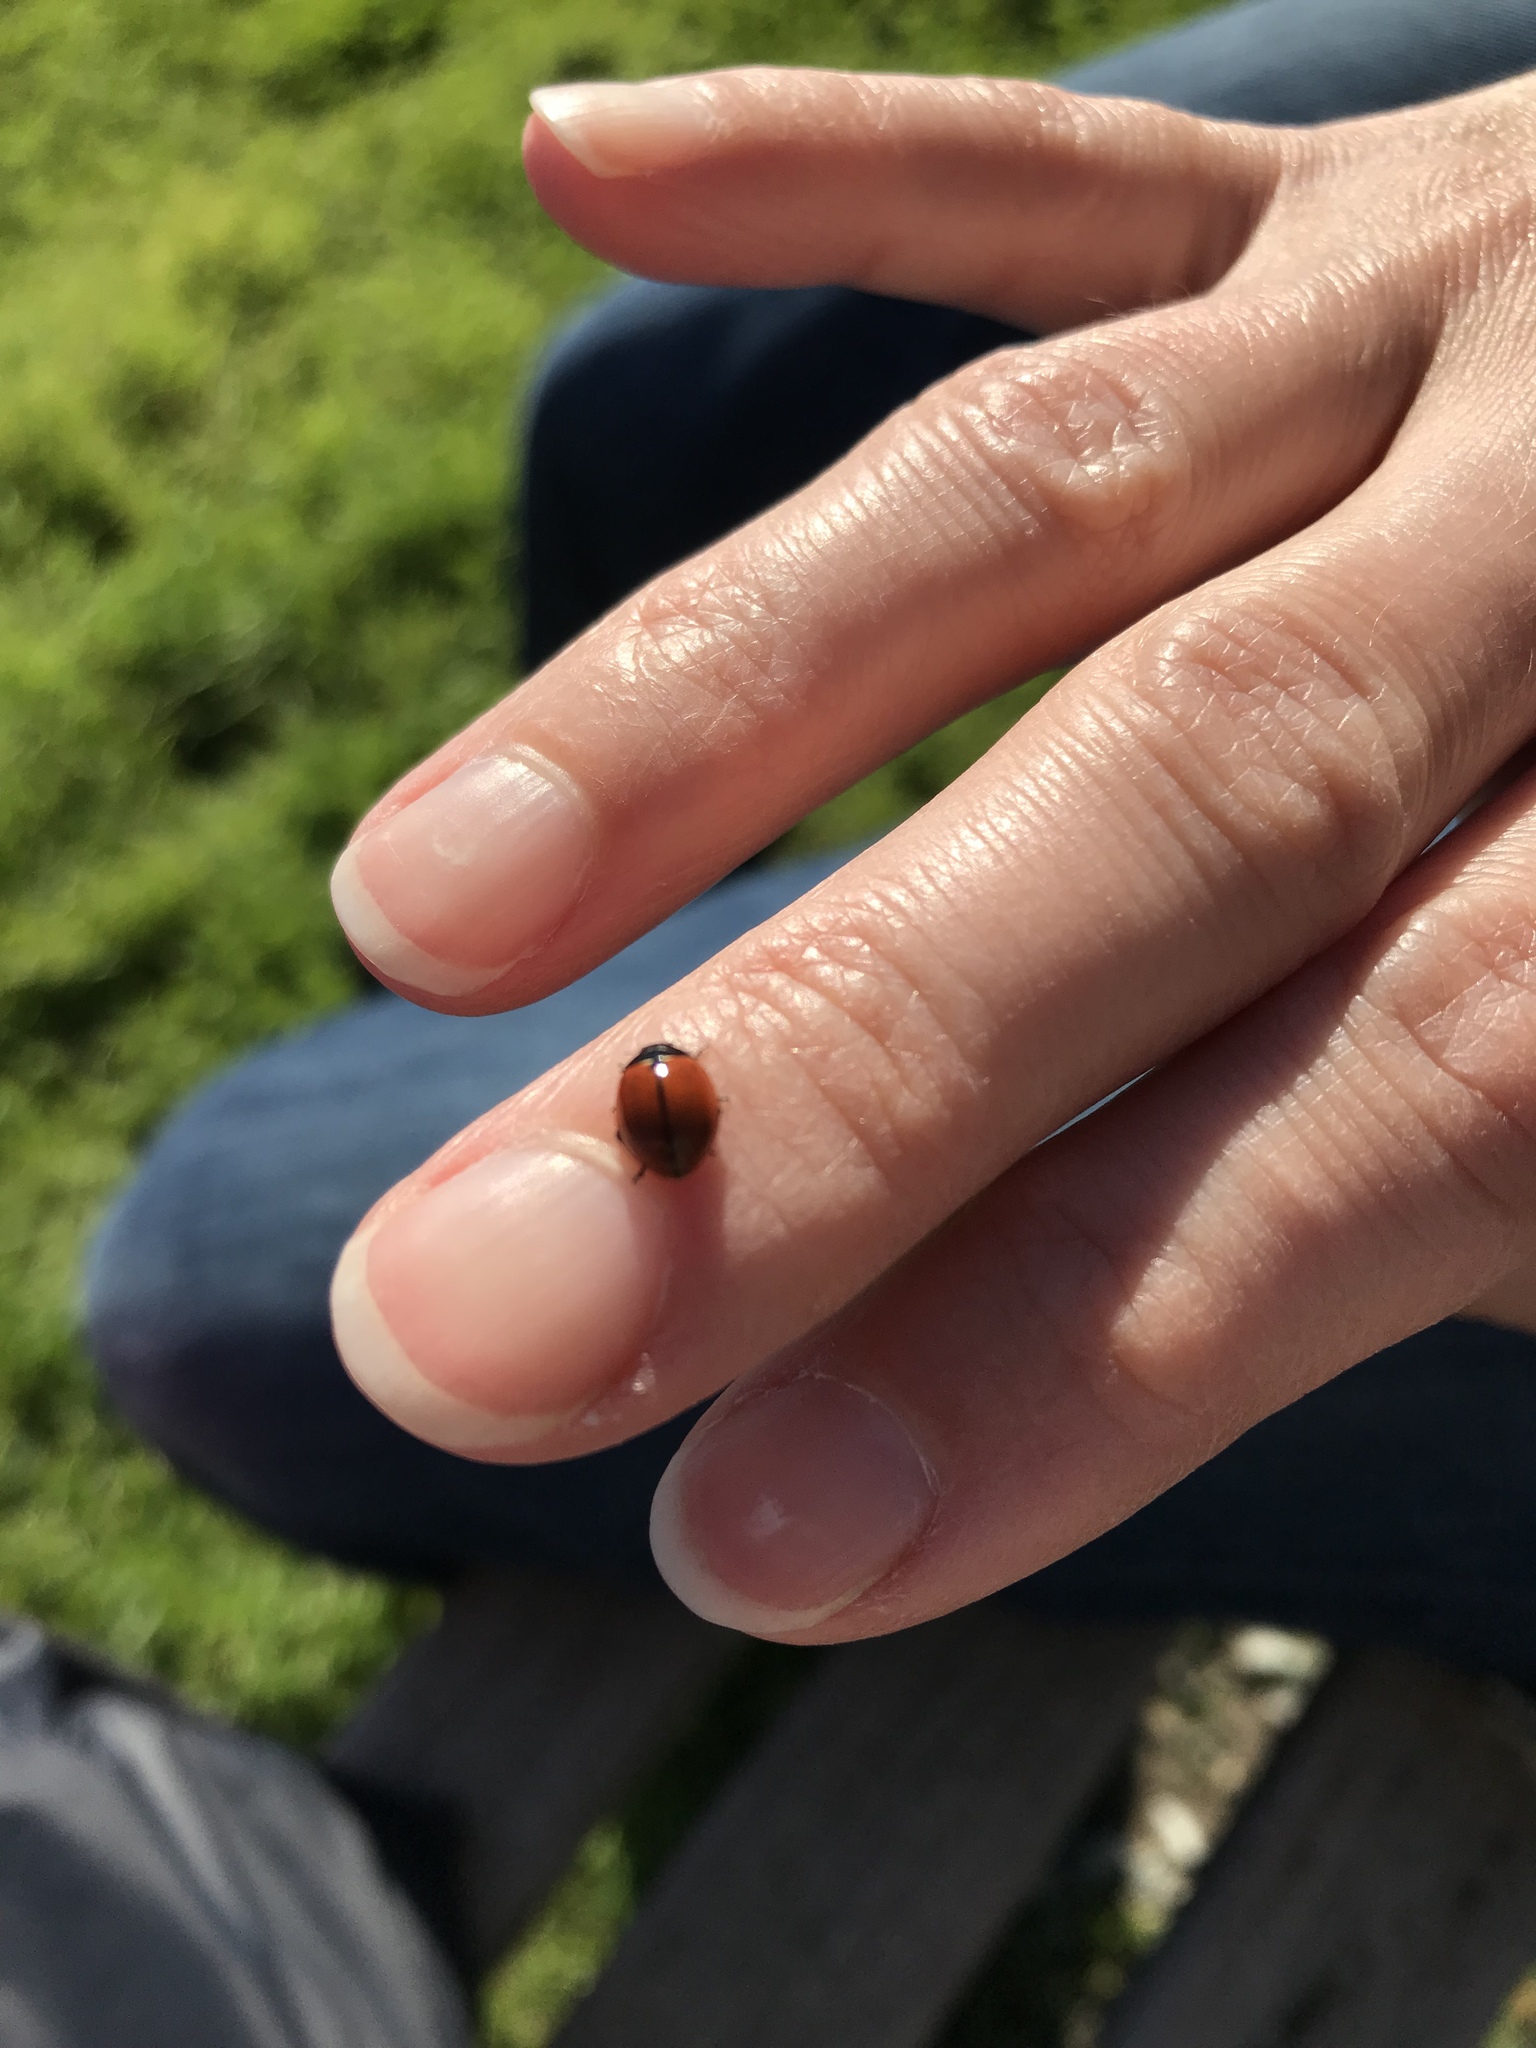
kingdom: Animalia
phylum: Arthropoda
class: Insecta
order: Coleoptera
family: Coccinellidae
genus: Coccinella
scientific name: Coccinella californica
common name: Lady beetle
